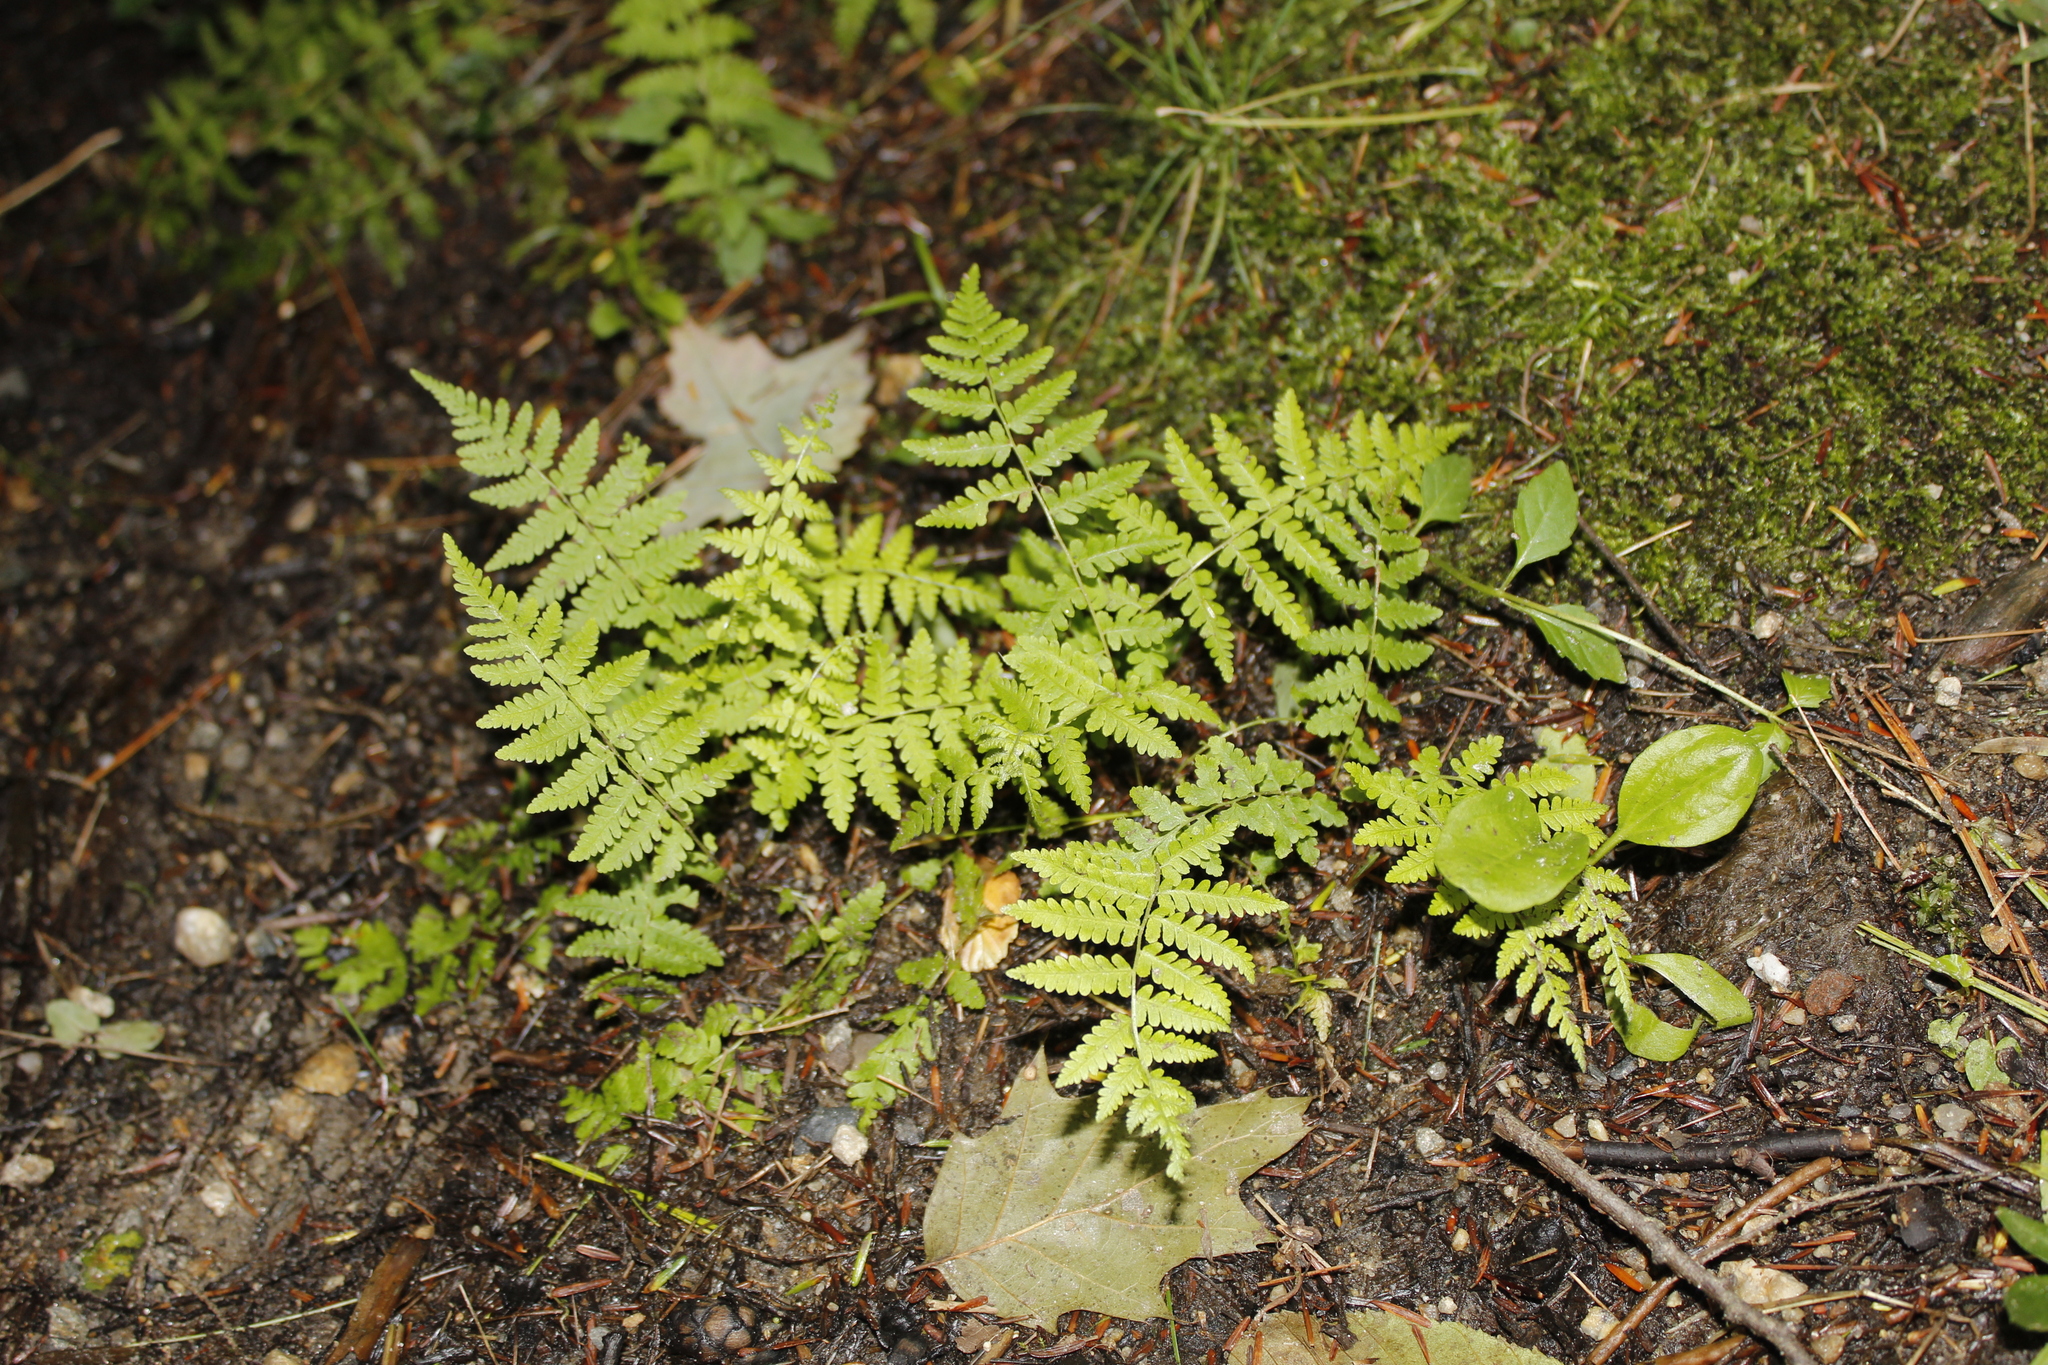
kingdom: Plantae
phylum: Tracheophyta
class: Polypodiopsida
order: Polypodiales
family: Thelypteridaceae
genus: Thelypteris
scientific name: Thelypteris palustris
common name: Marsh fern
